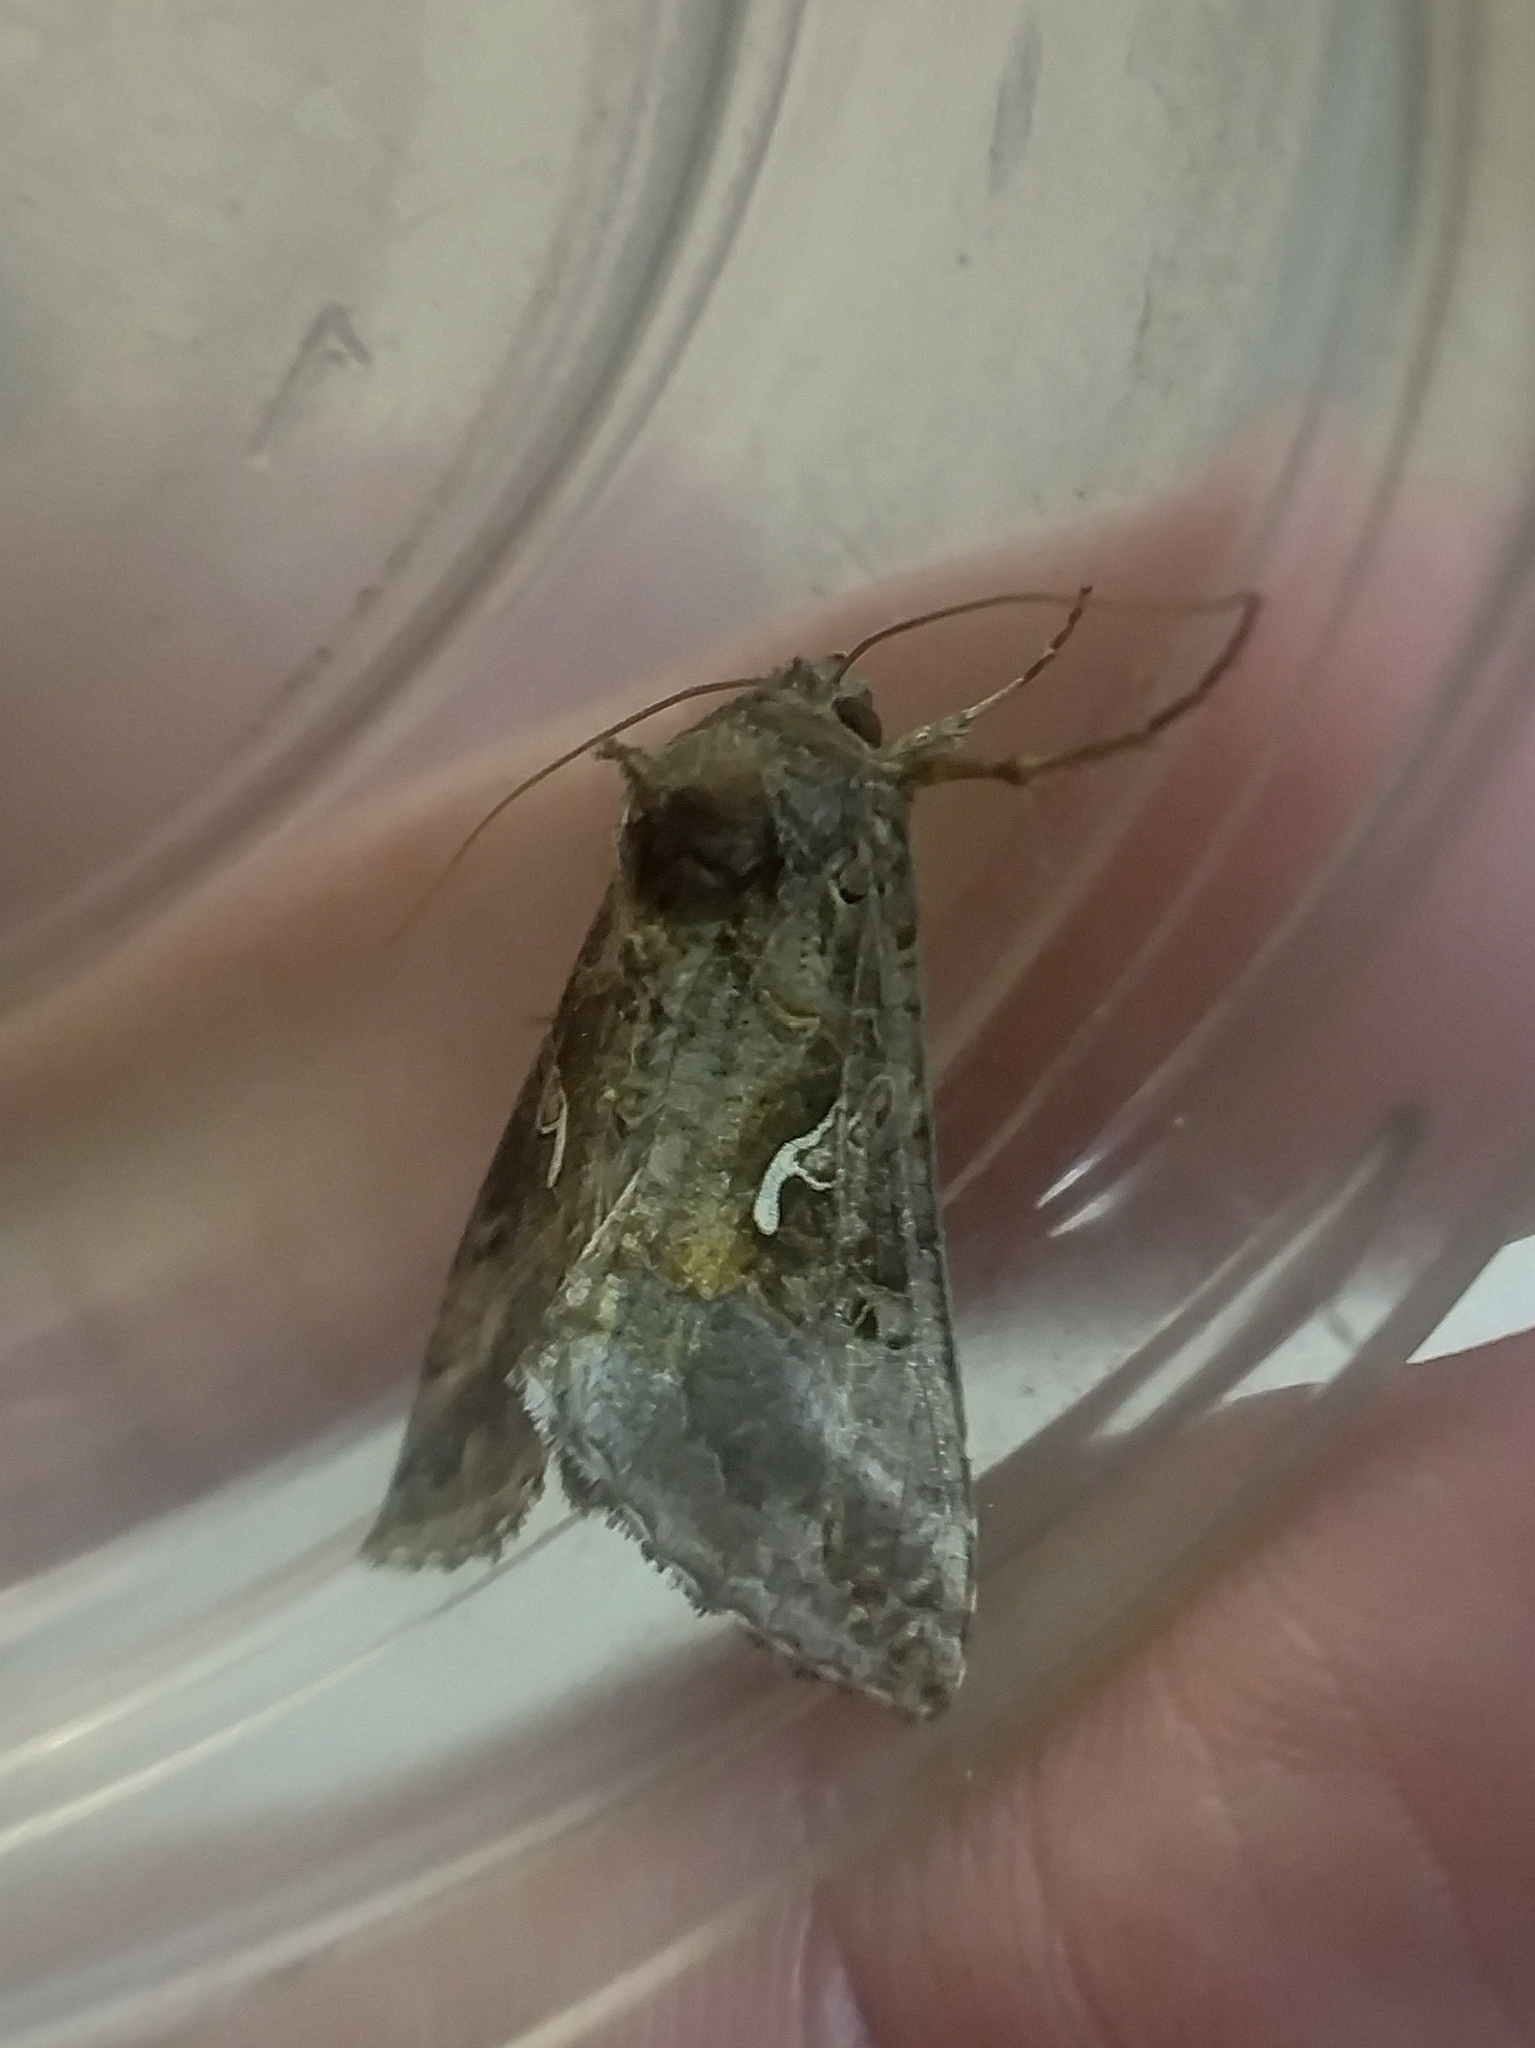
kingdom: Animalia
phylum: Arthropoda
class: Insecta
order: Lepidoptera
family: Noctuidae
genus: Autographa
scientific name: Autographa gamma
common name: Silver y
